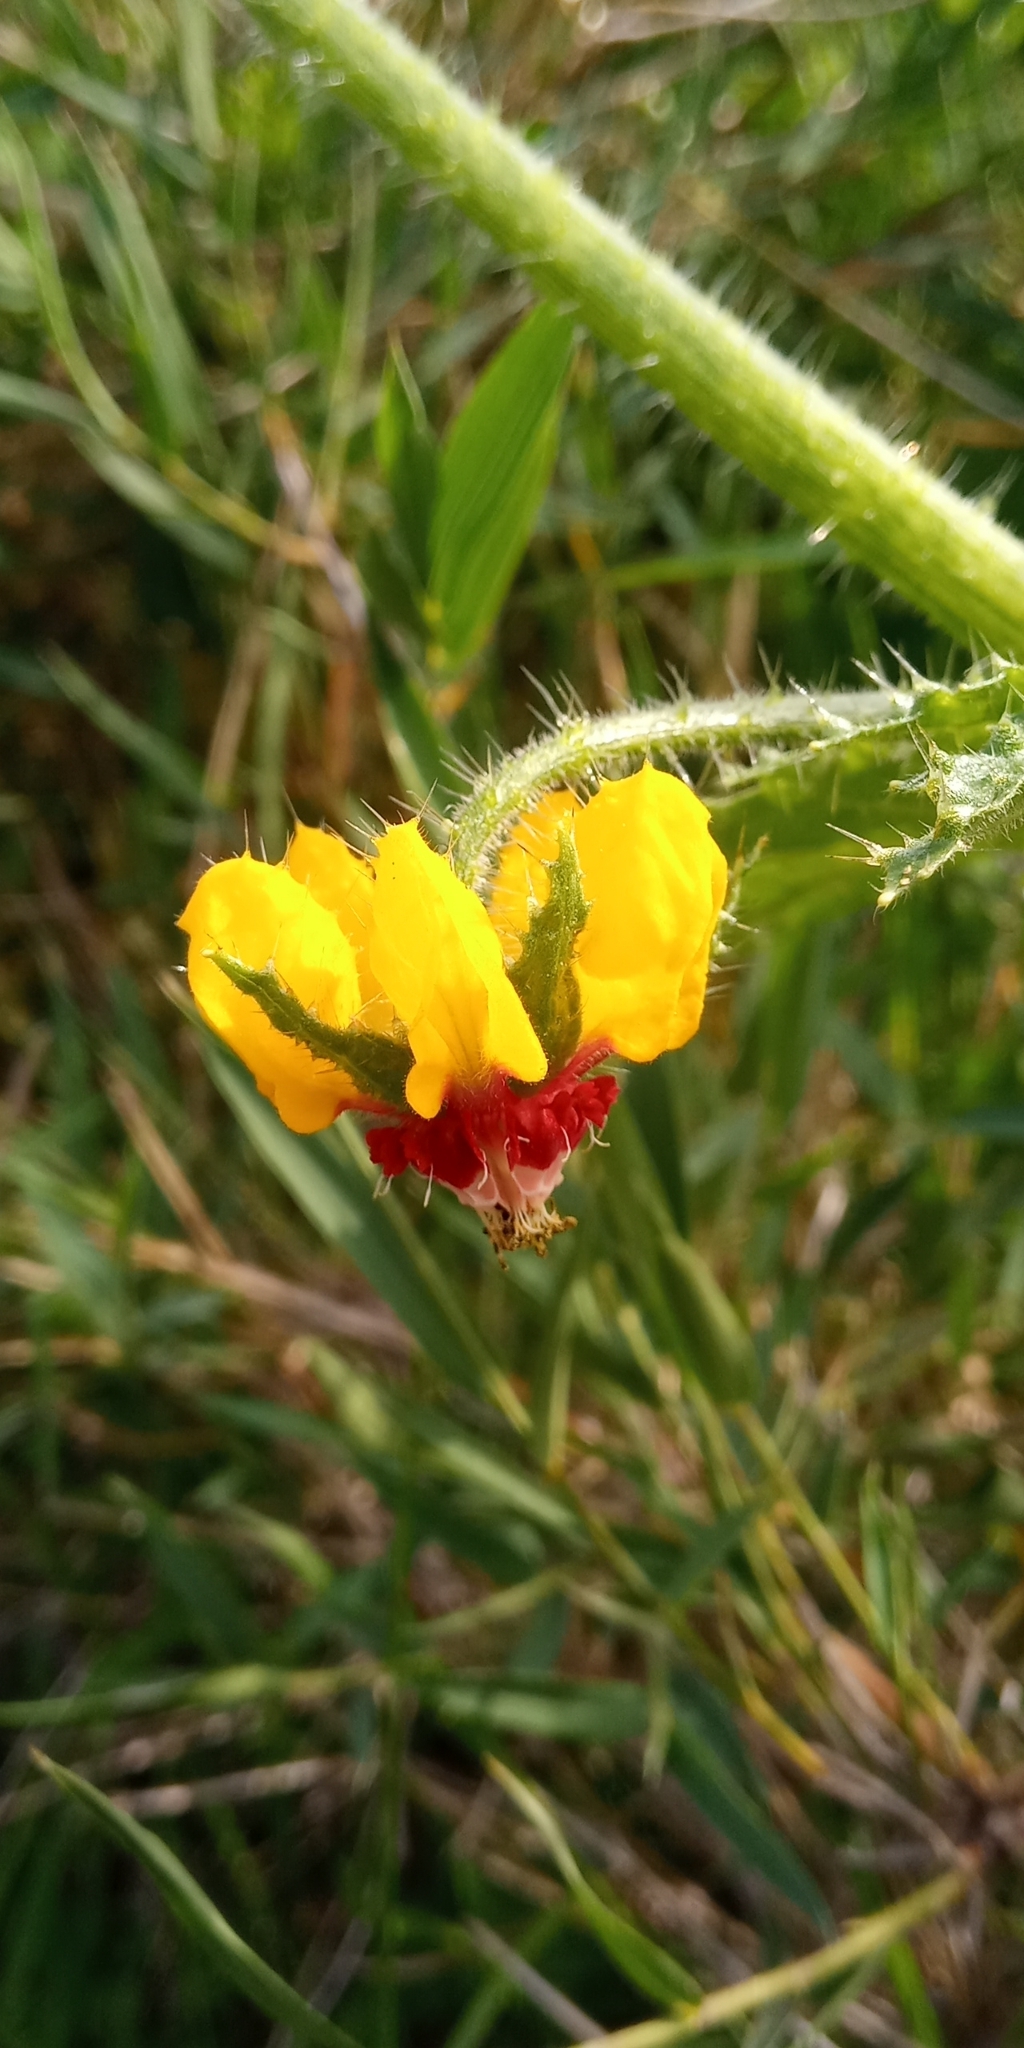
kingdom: Plantae
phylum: Tracheophyta
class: Magnoliopsida
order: Cornales
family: Loasaceae
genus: Loasa
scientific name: Loasa tricolor
